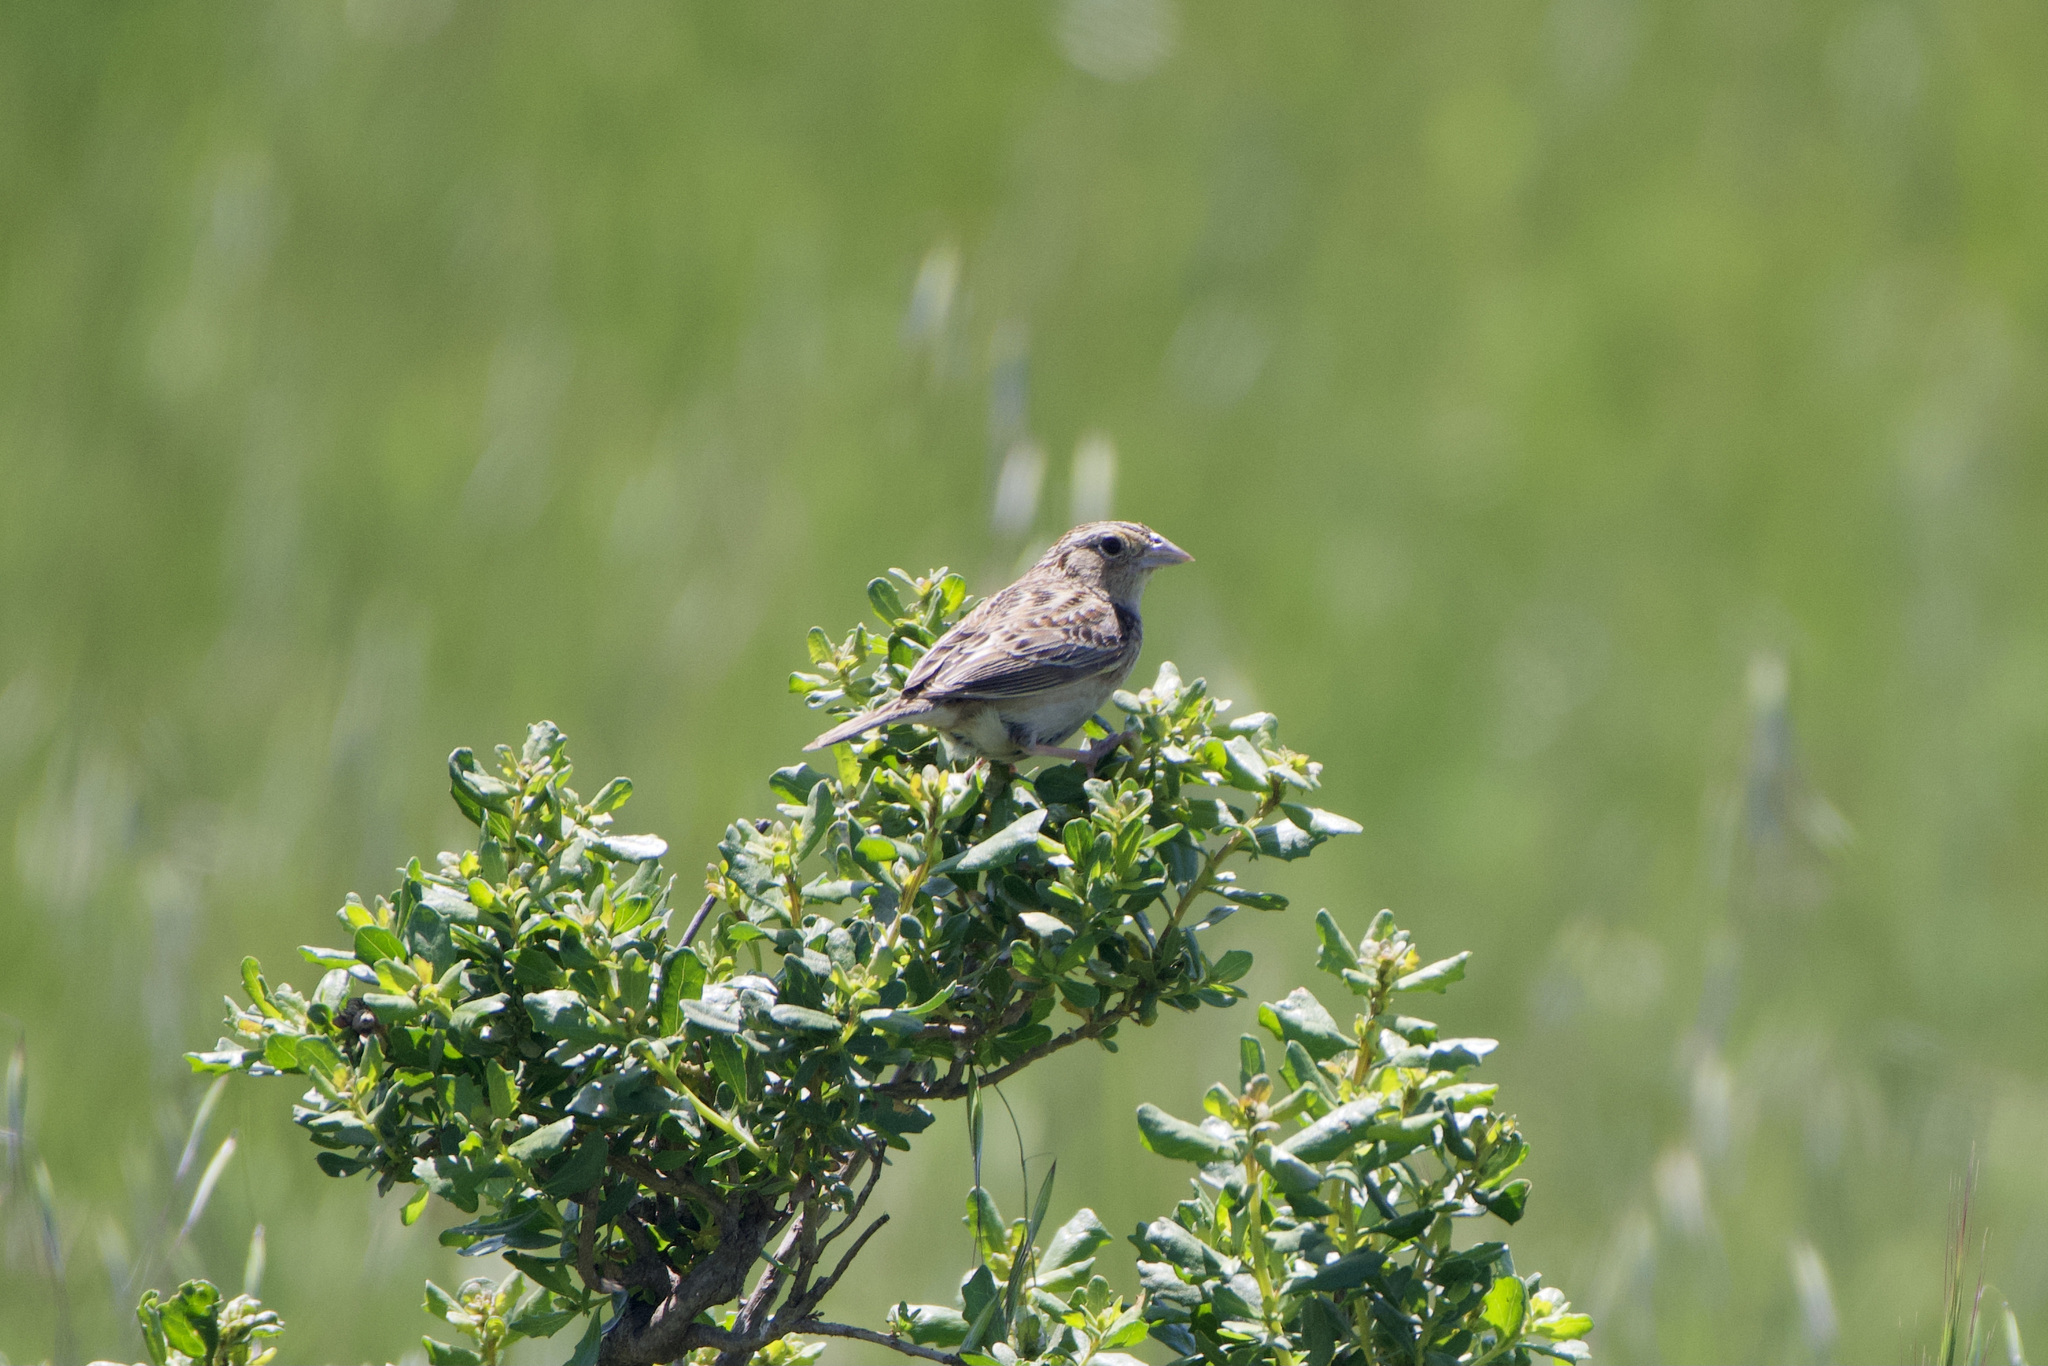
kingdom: Animalia
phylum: Chordata
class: Aves
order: Passeriformes
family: Passerellidae
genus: Ammodramus
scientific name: Ammodramus savannarum
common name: Grasshopper sparrow
